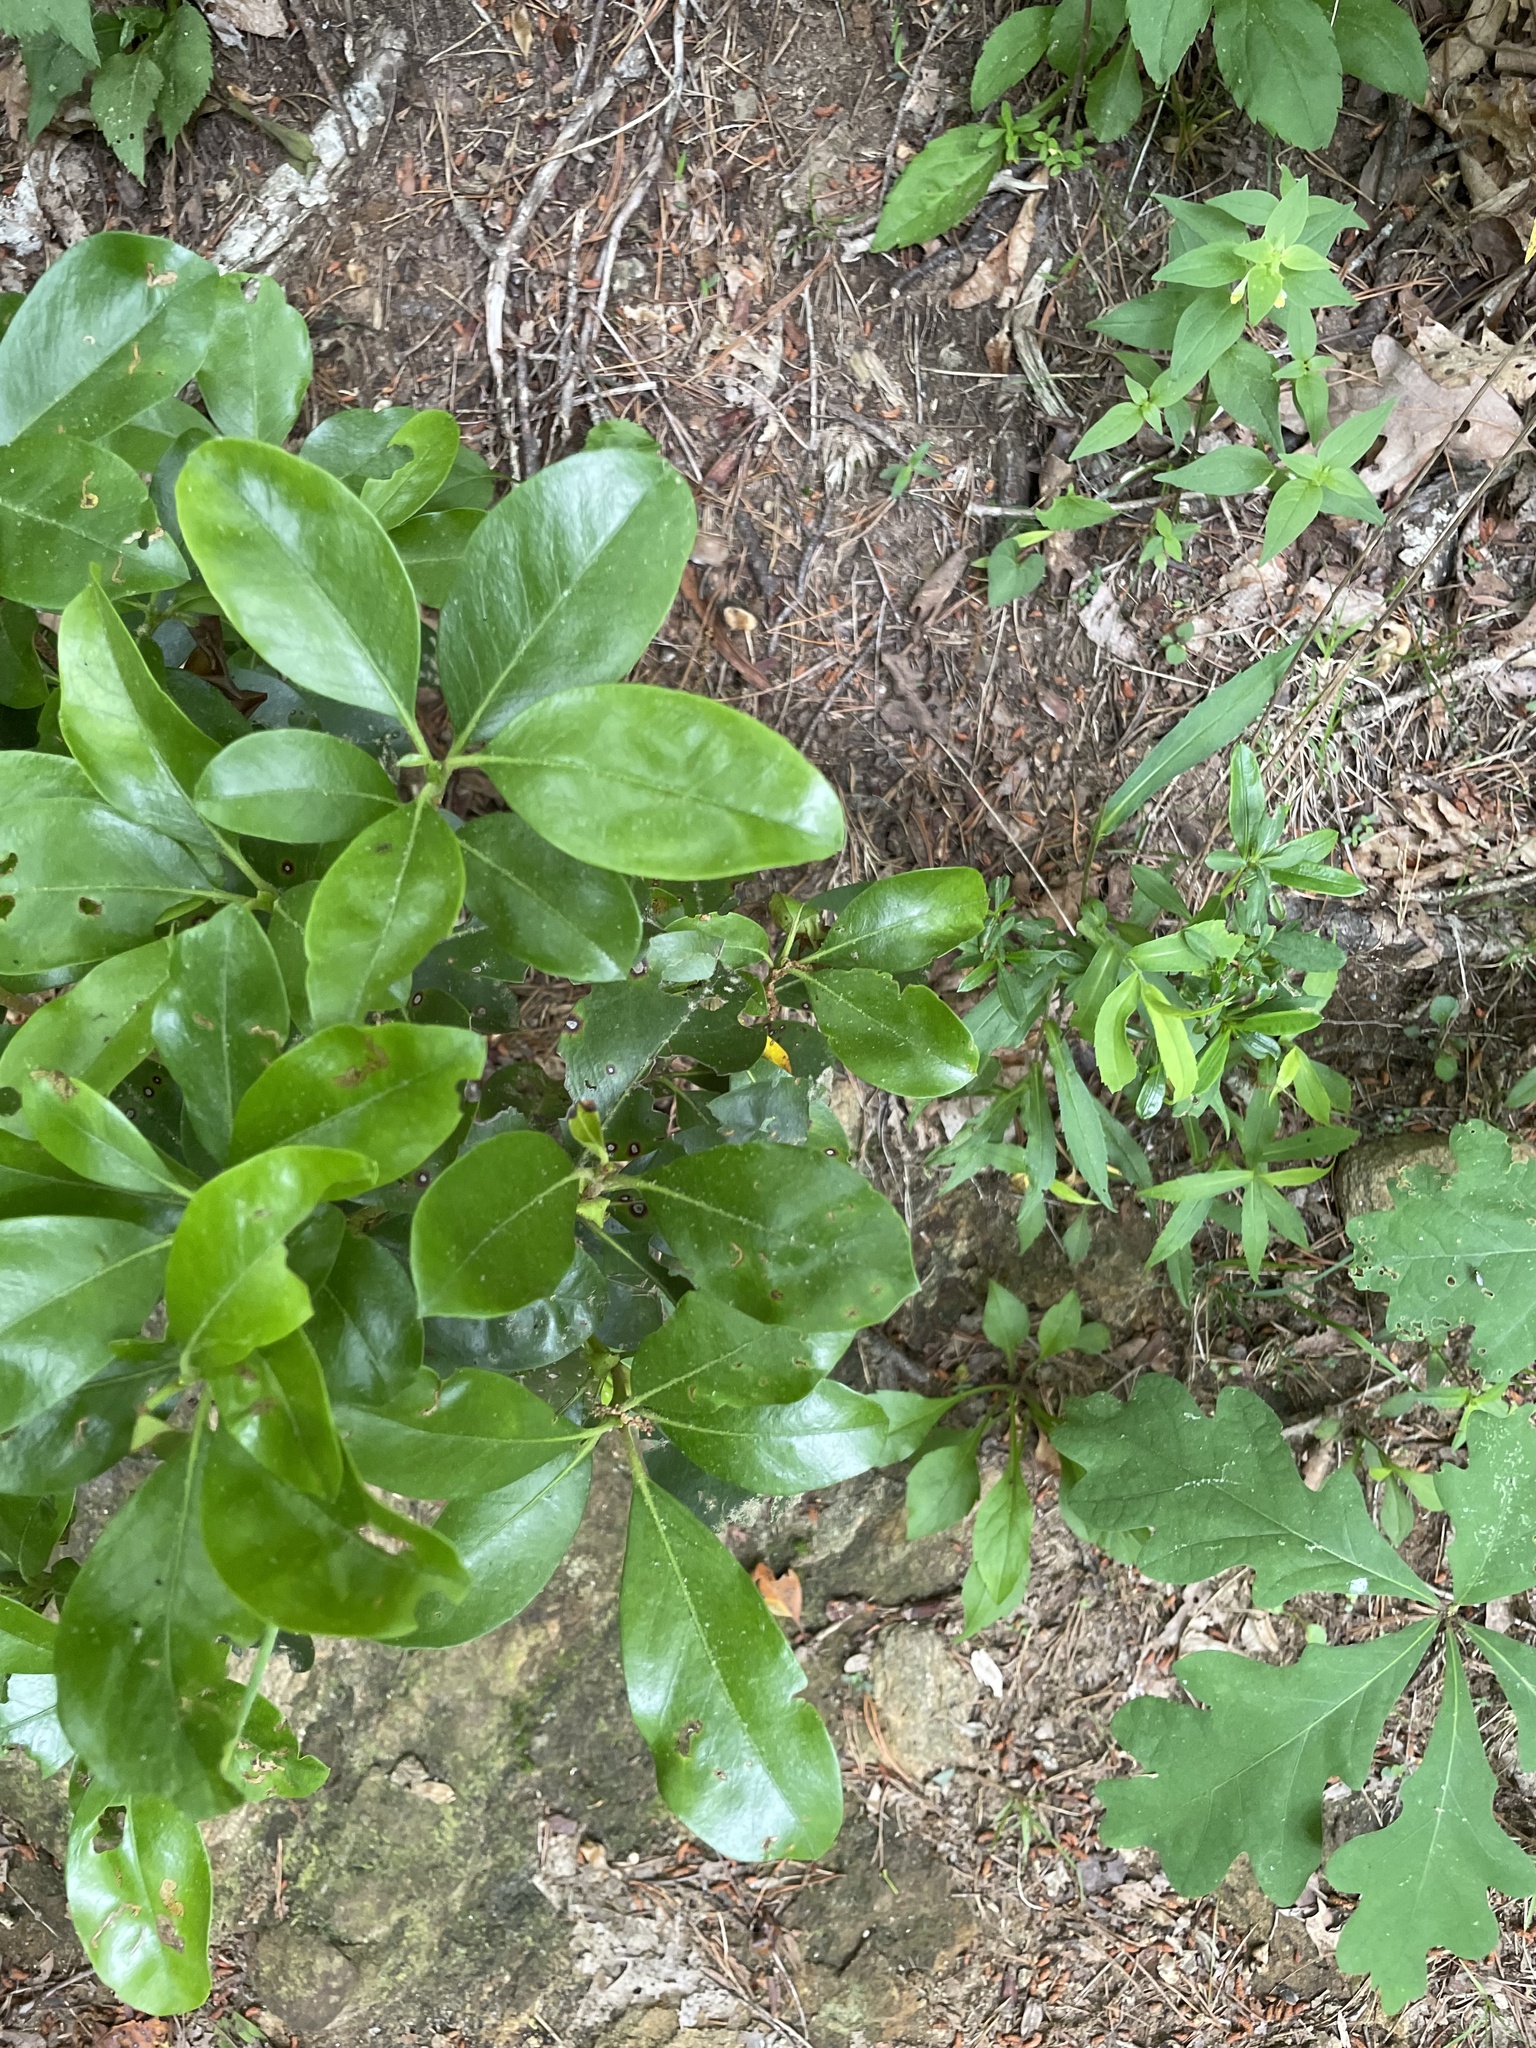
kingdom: Plantae
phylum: Tracheophyta
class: Magnoliopsida
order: Ericales
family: Ericaceae
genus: Kalmia
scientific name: Kalmia latifolia
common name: Mountain-laurel
